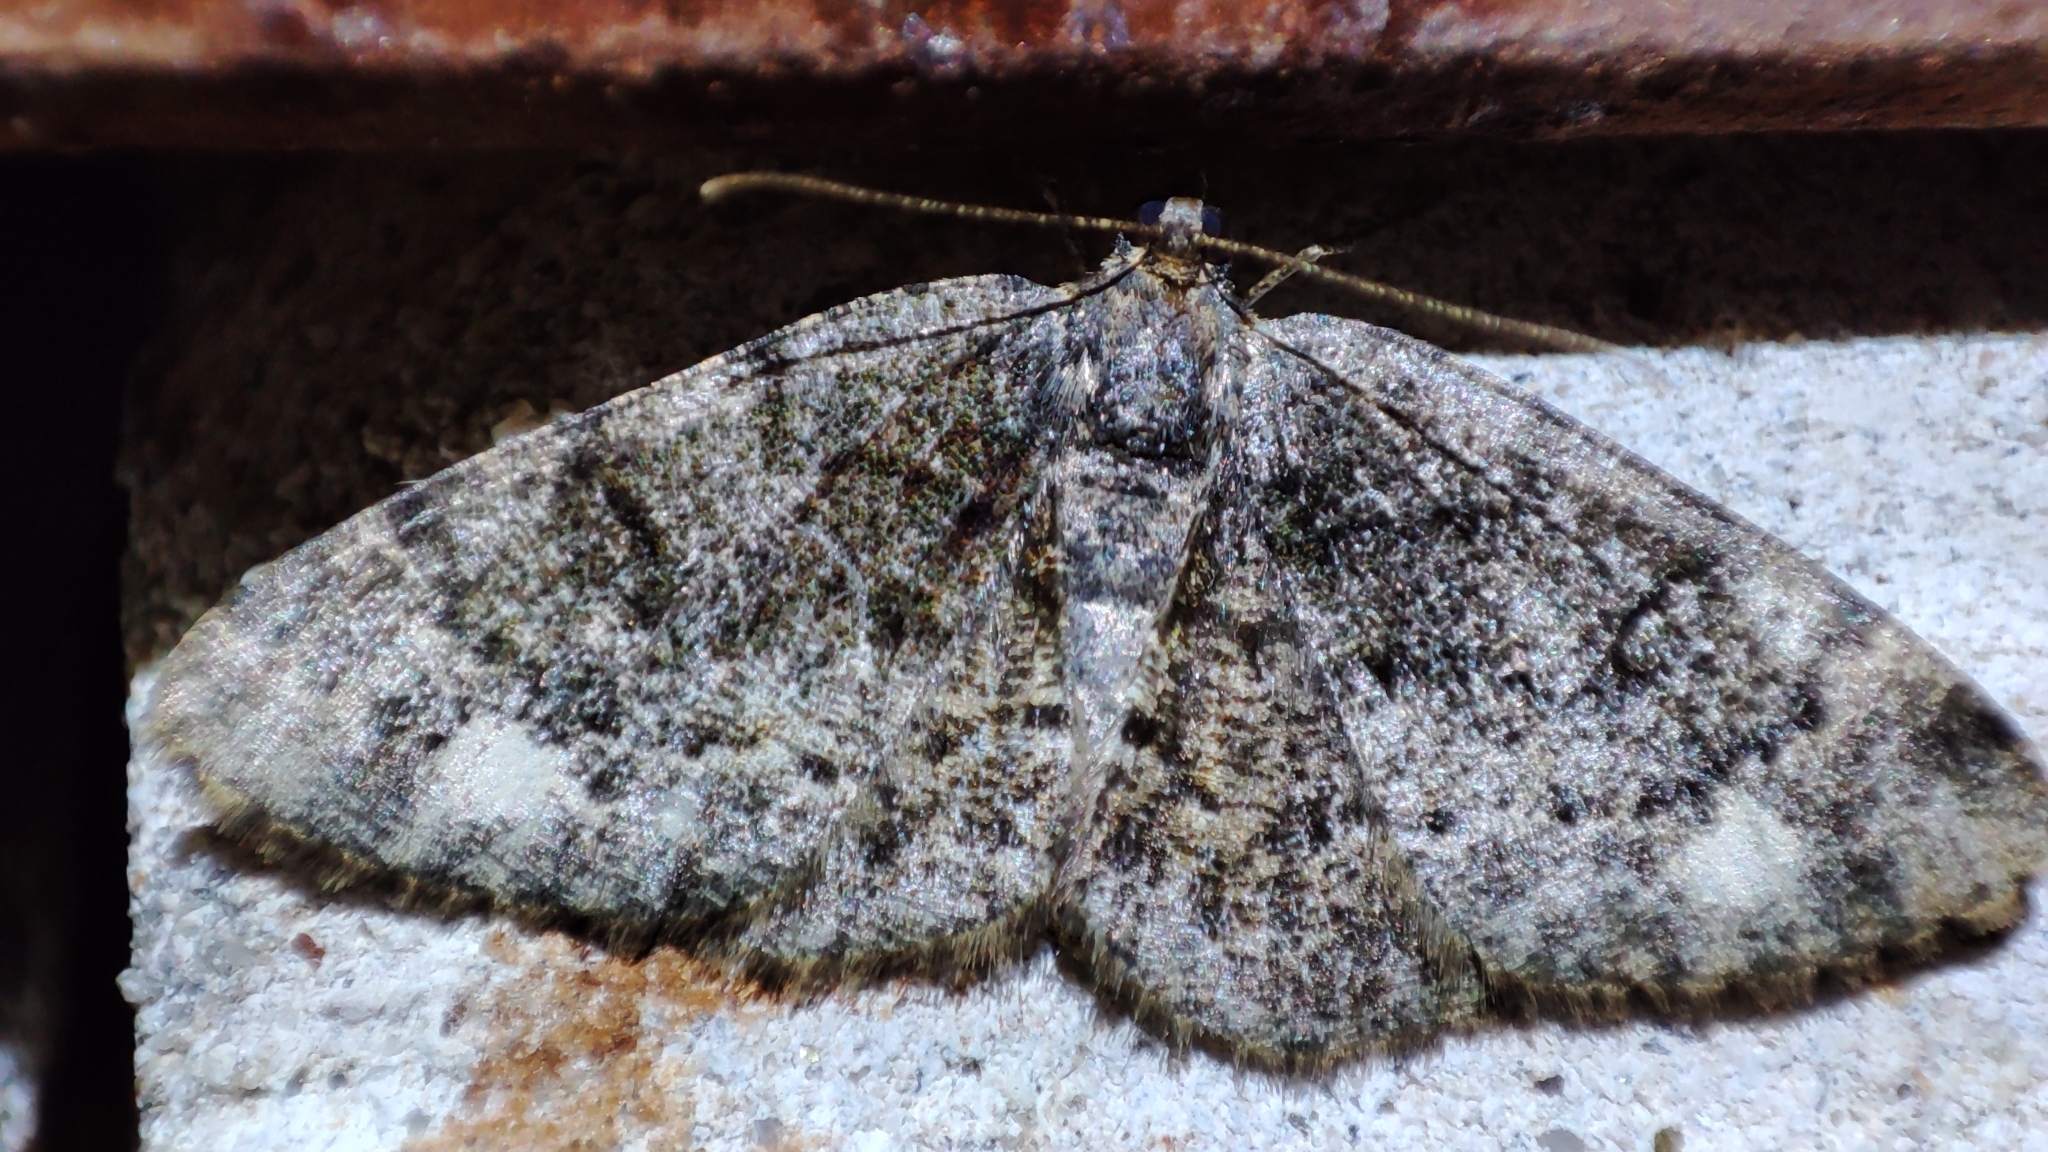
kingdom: Animalia
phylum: Arthropoda
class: Insecta
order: Lepidoptera
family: Geometridae
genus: Parectropis
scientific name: Parectropis similaria
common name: Brindled white-spot
